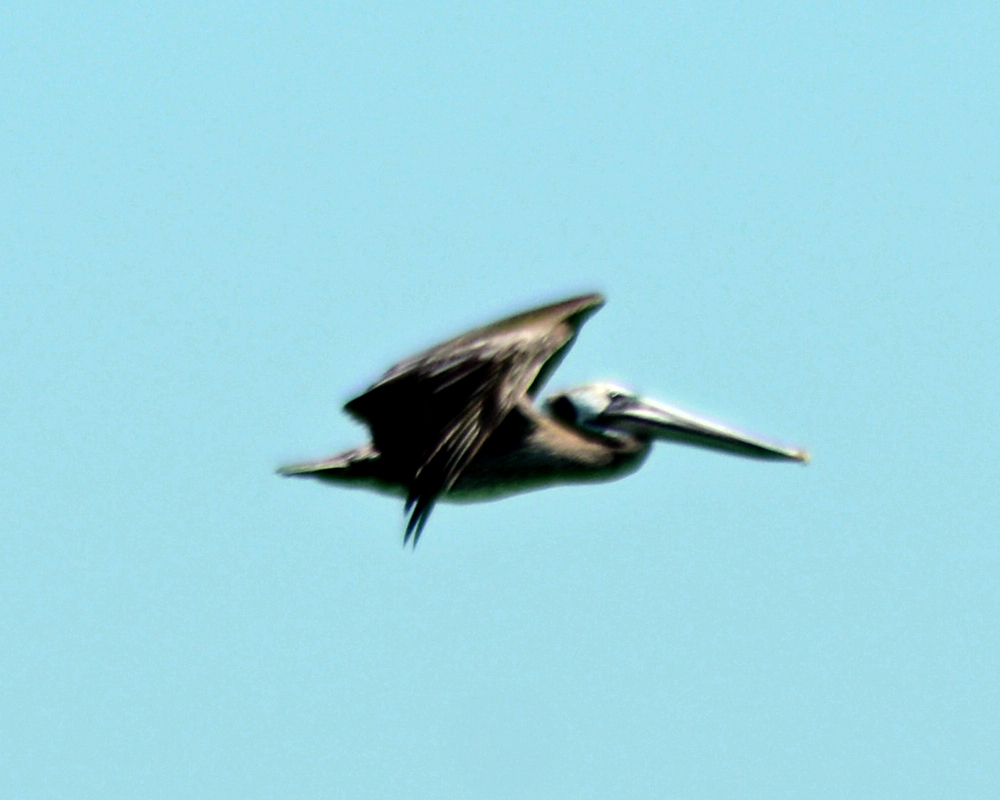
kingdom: Animalia
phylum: Chordata
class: Aves
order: Pelecaniformes
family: Pelecanidae
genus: Pelecanus
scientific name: Pelecanus occidentalis
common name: Brown pelican
